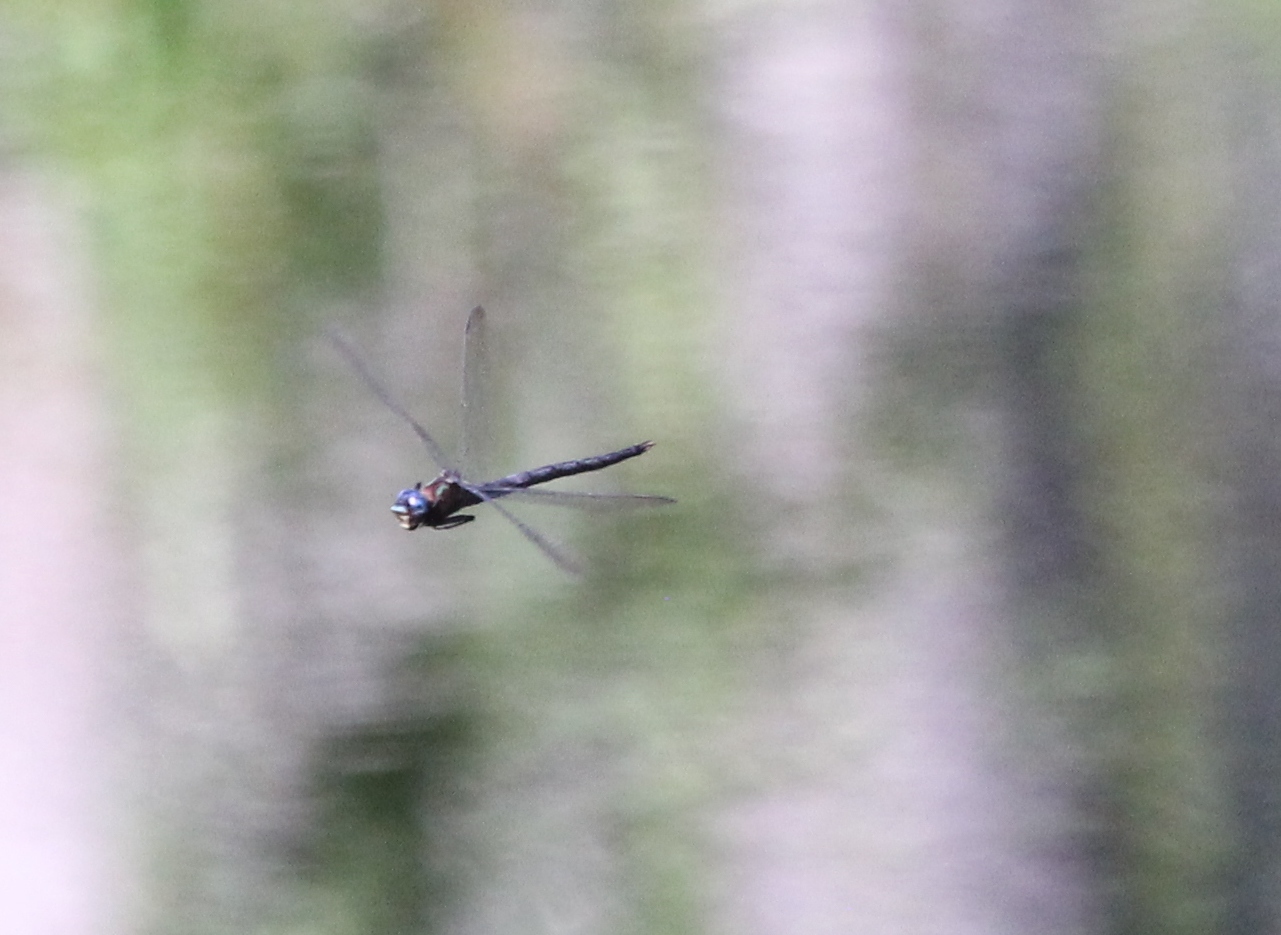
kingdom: Animalia
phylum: Arthropoda
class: Insecta
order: Odonata
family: Aeshnidae
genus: Nasiaeschna
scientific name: Nasiaeschna pentacantha
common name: Cyrano darner
